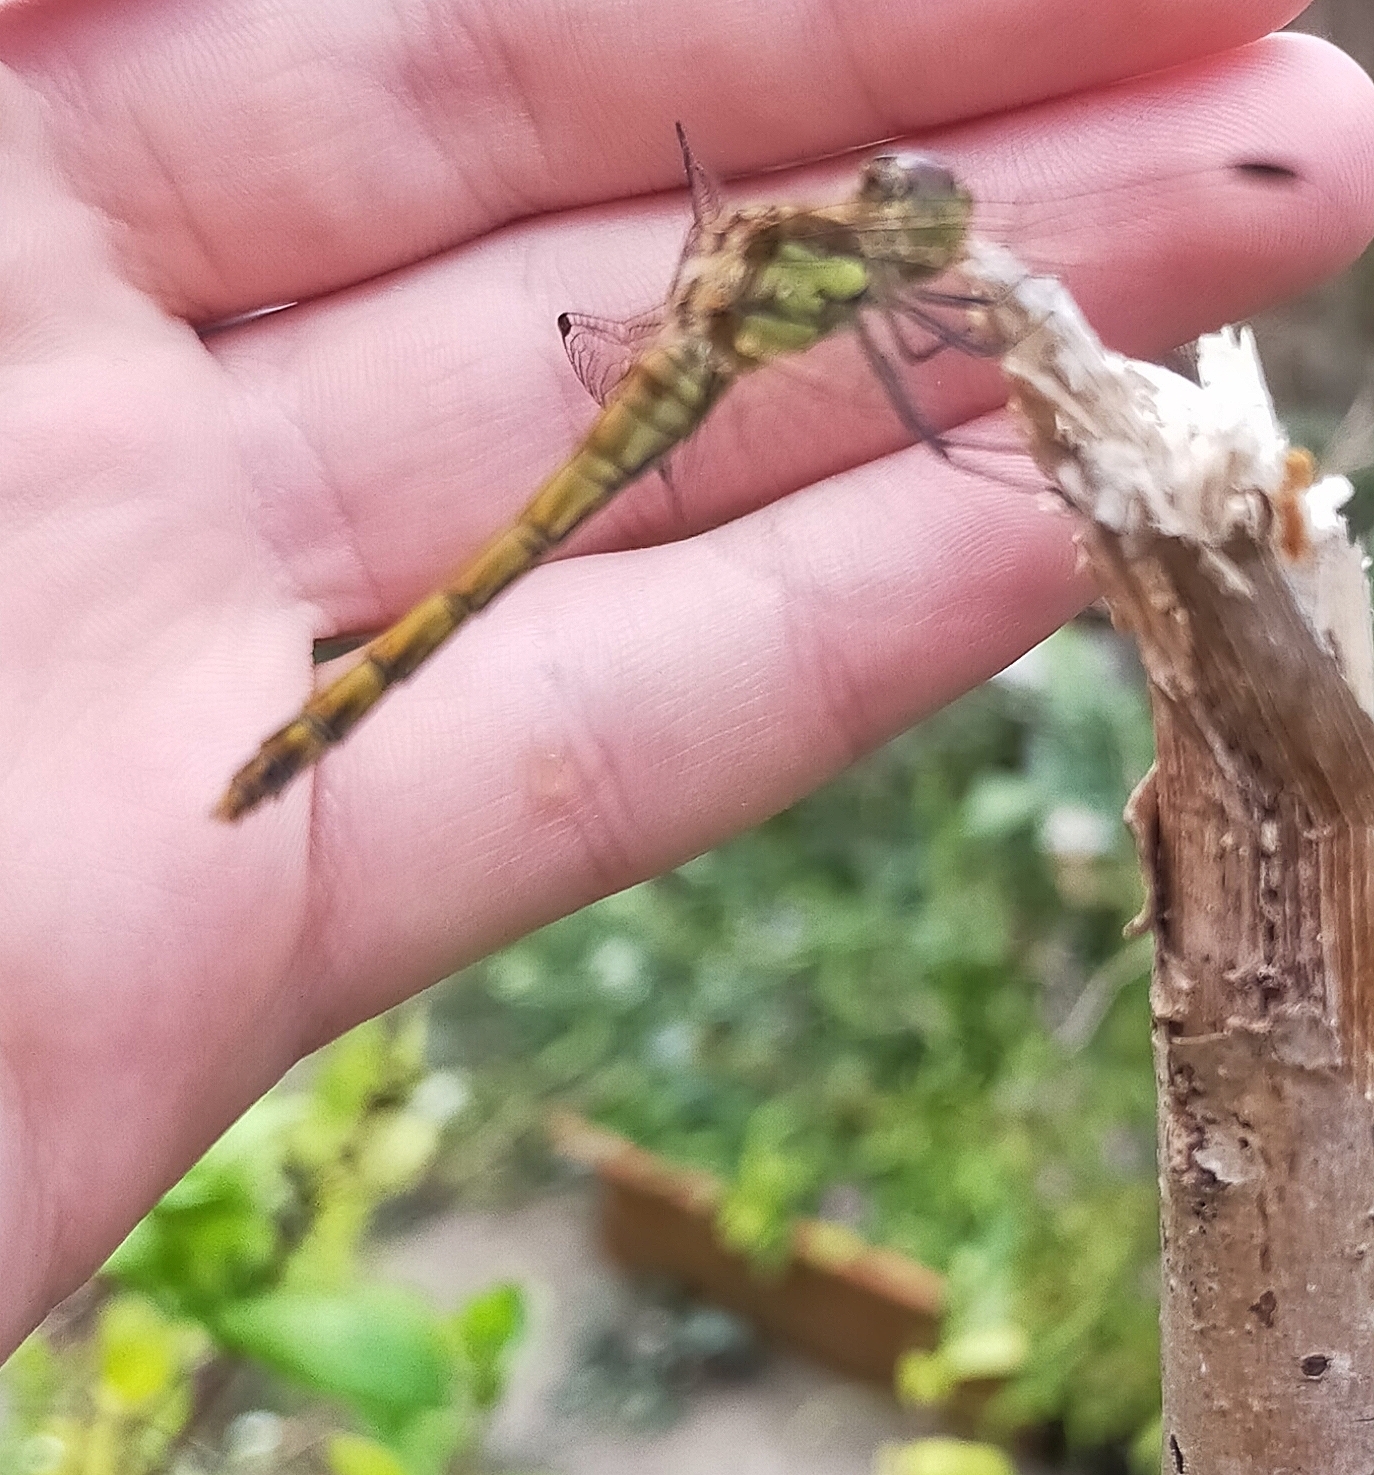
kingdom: Animalia
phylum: Arthropoda
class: Insecta
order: Odonata
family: Libellulidae
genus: Sympetrum
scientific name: Sympetrum striolatum
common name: Common darter
